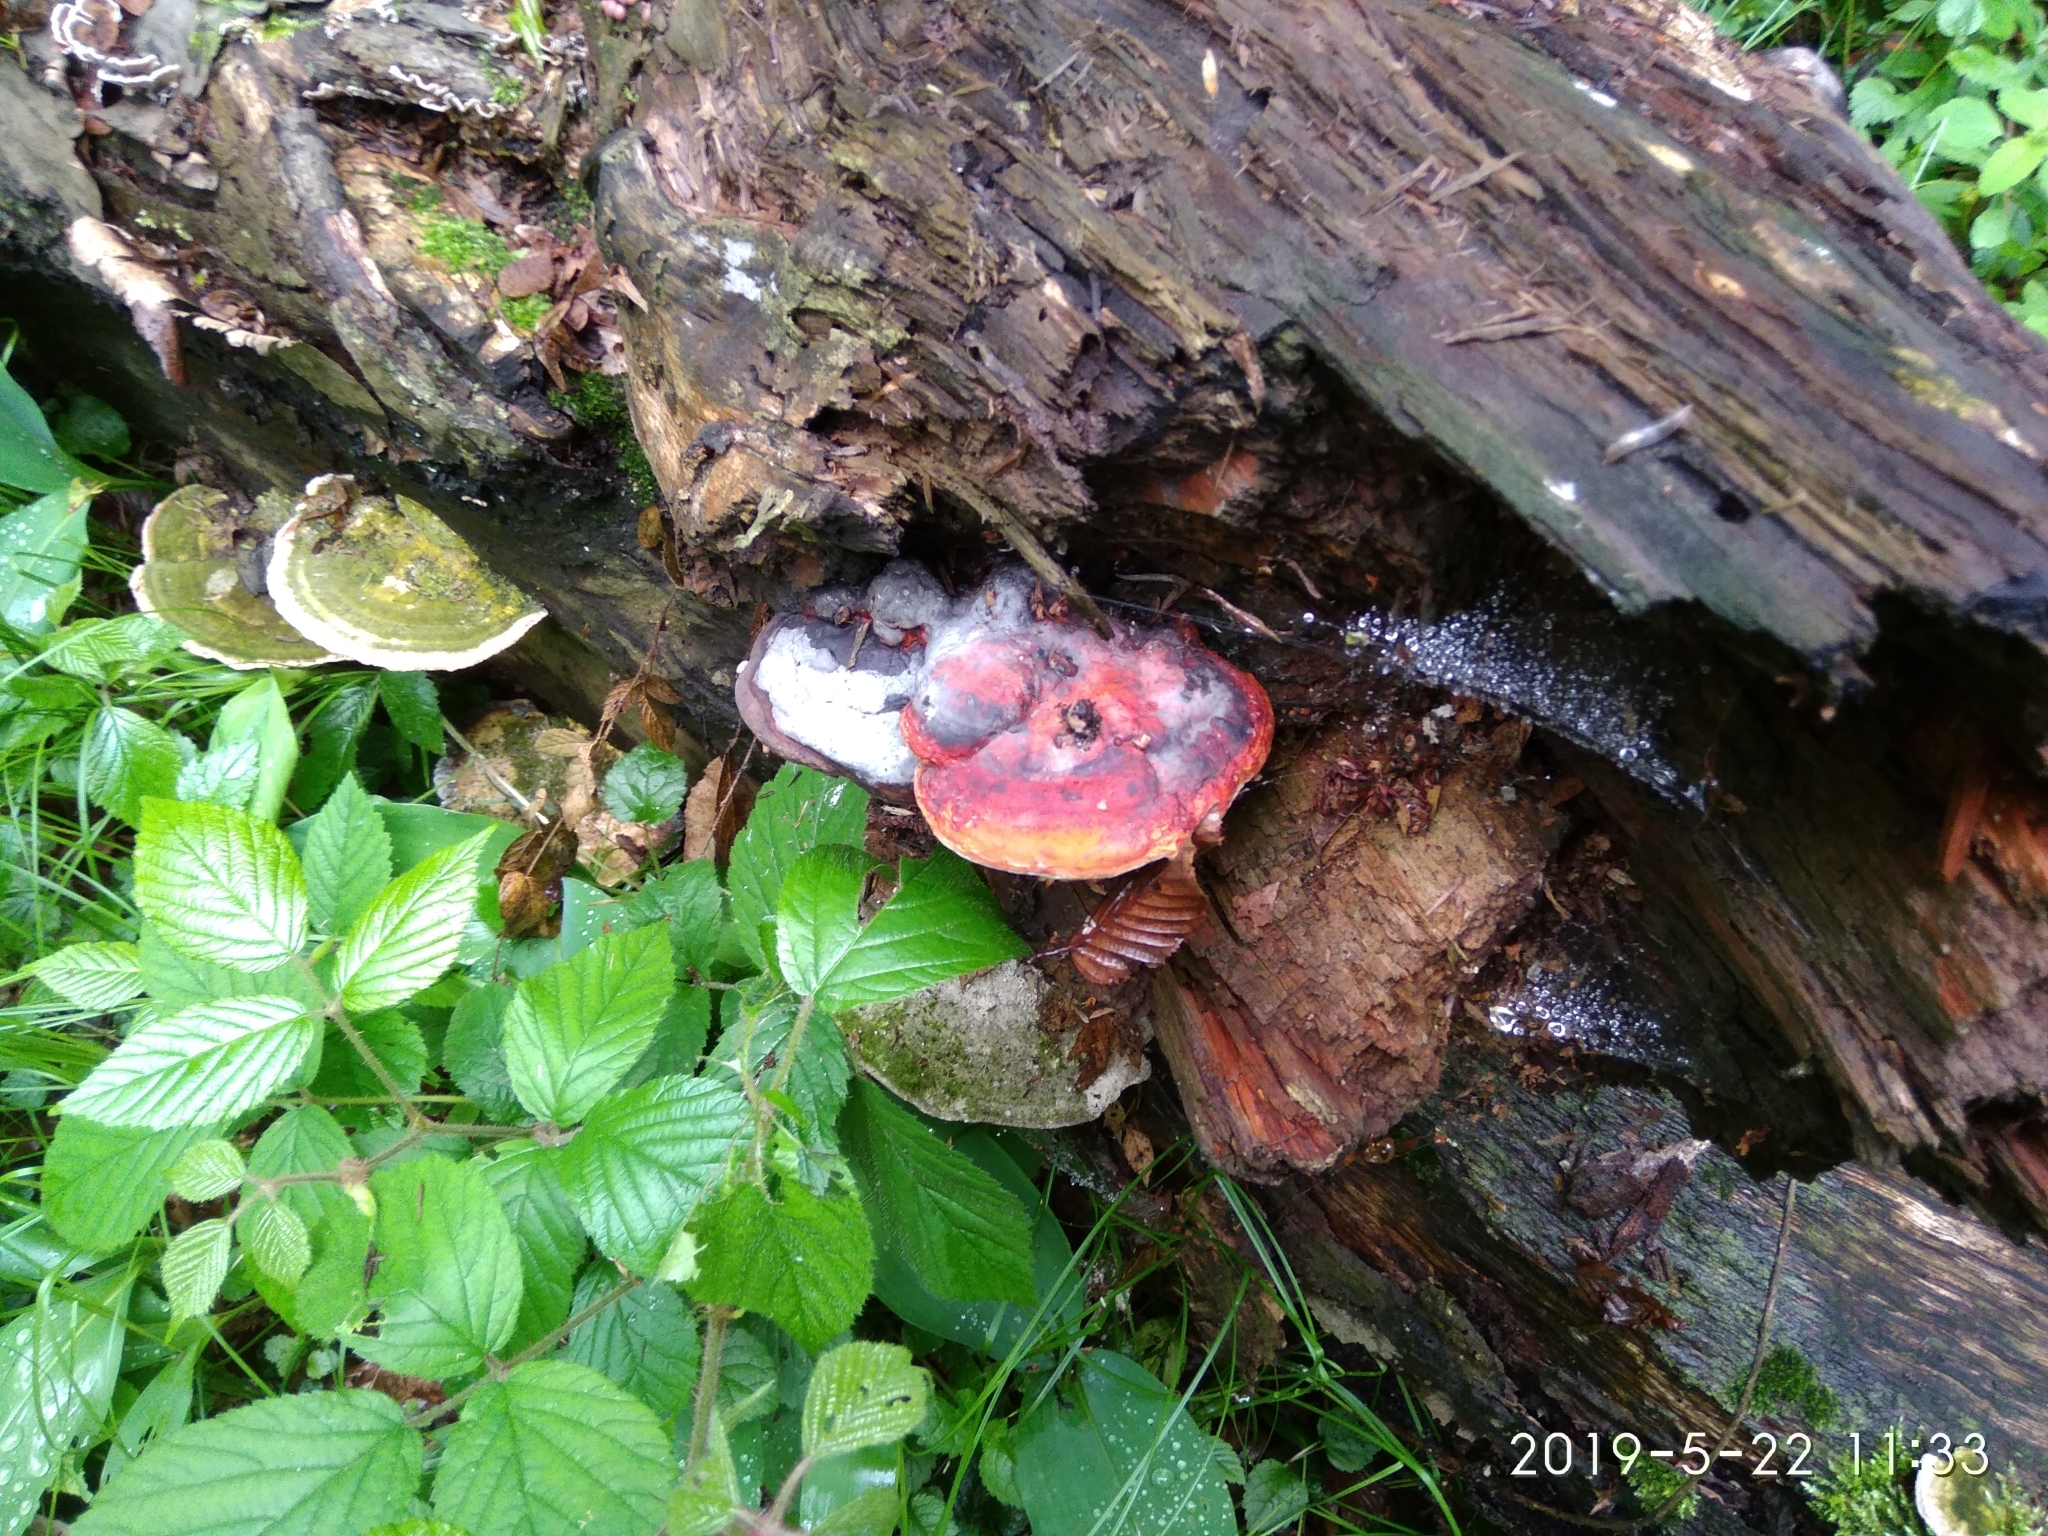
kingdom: Fungi
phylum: Basidiomycota
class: Agaricomycetes
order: Polyporales
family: Fomitopsidaceae
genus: Fomitopsis
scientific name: Fomitopsis pinicola
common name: Red-belted bracket
